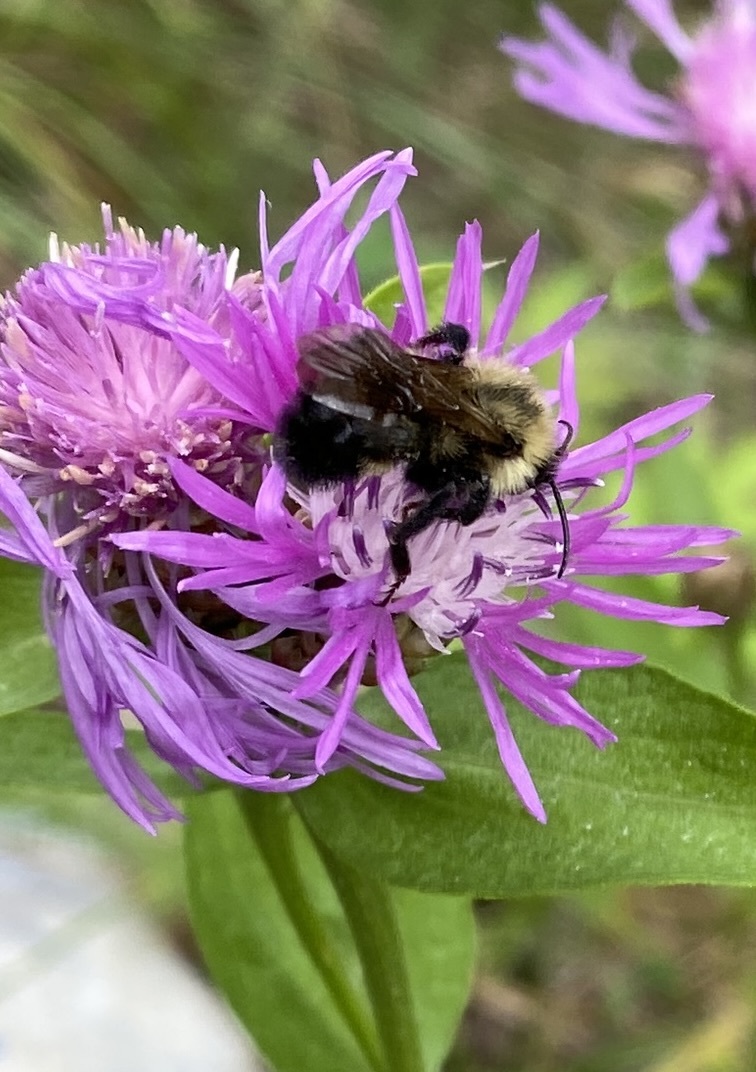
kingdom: Animalia
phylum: Arthropoda
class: Insecta
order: Hymenoptera
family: Apidae
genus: Bombus
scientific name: Bombus citrinus
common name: Lemon cuckoo bumble bee
